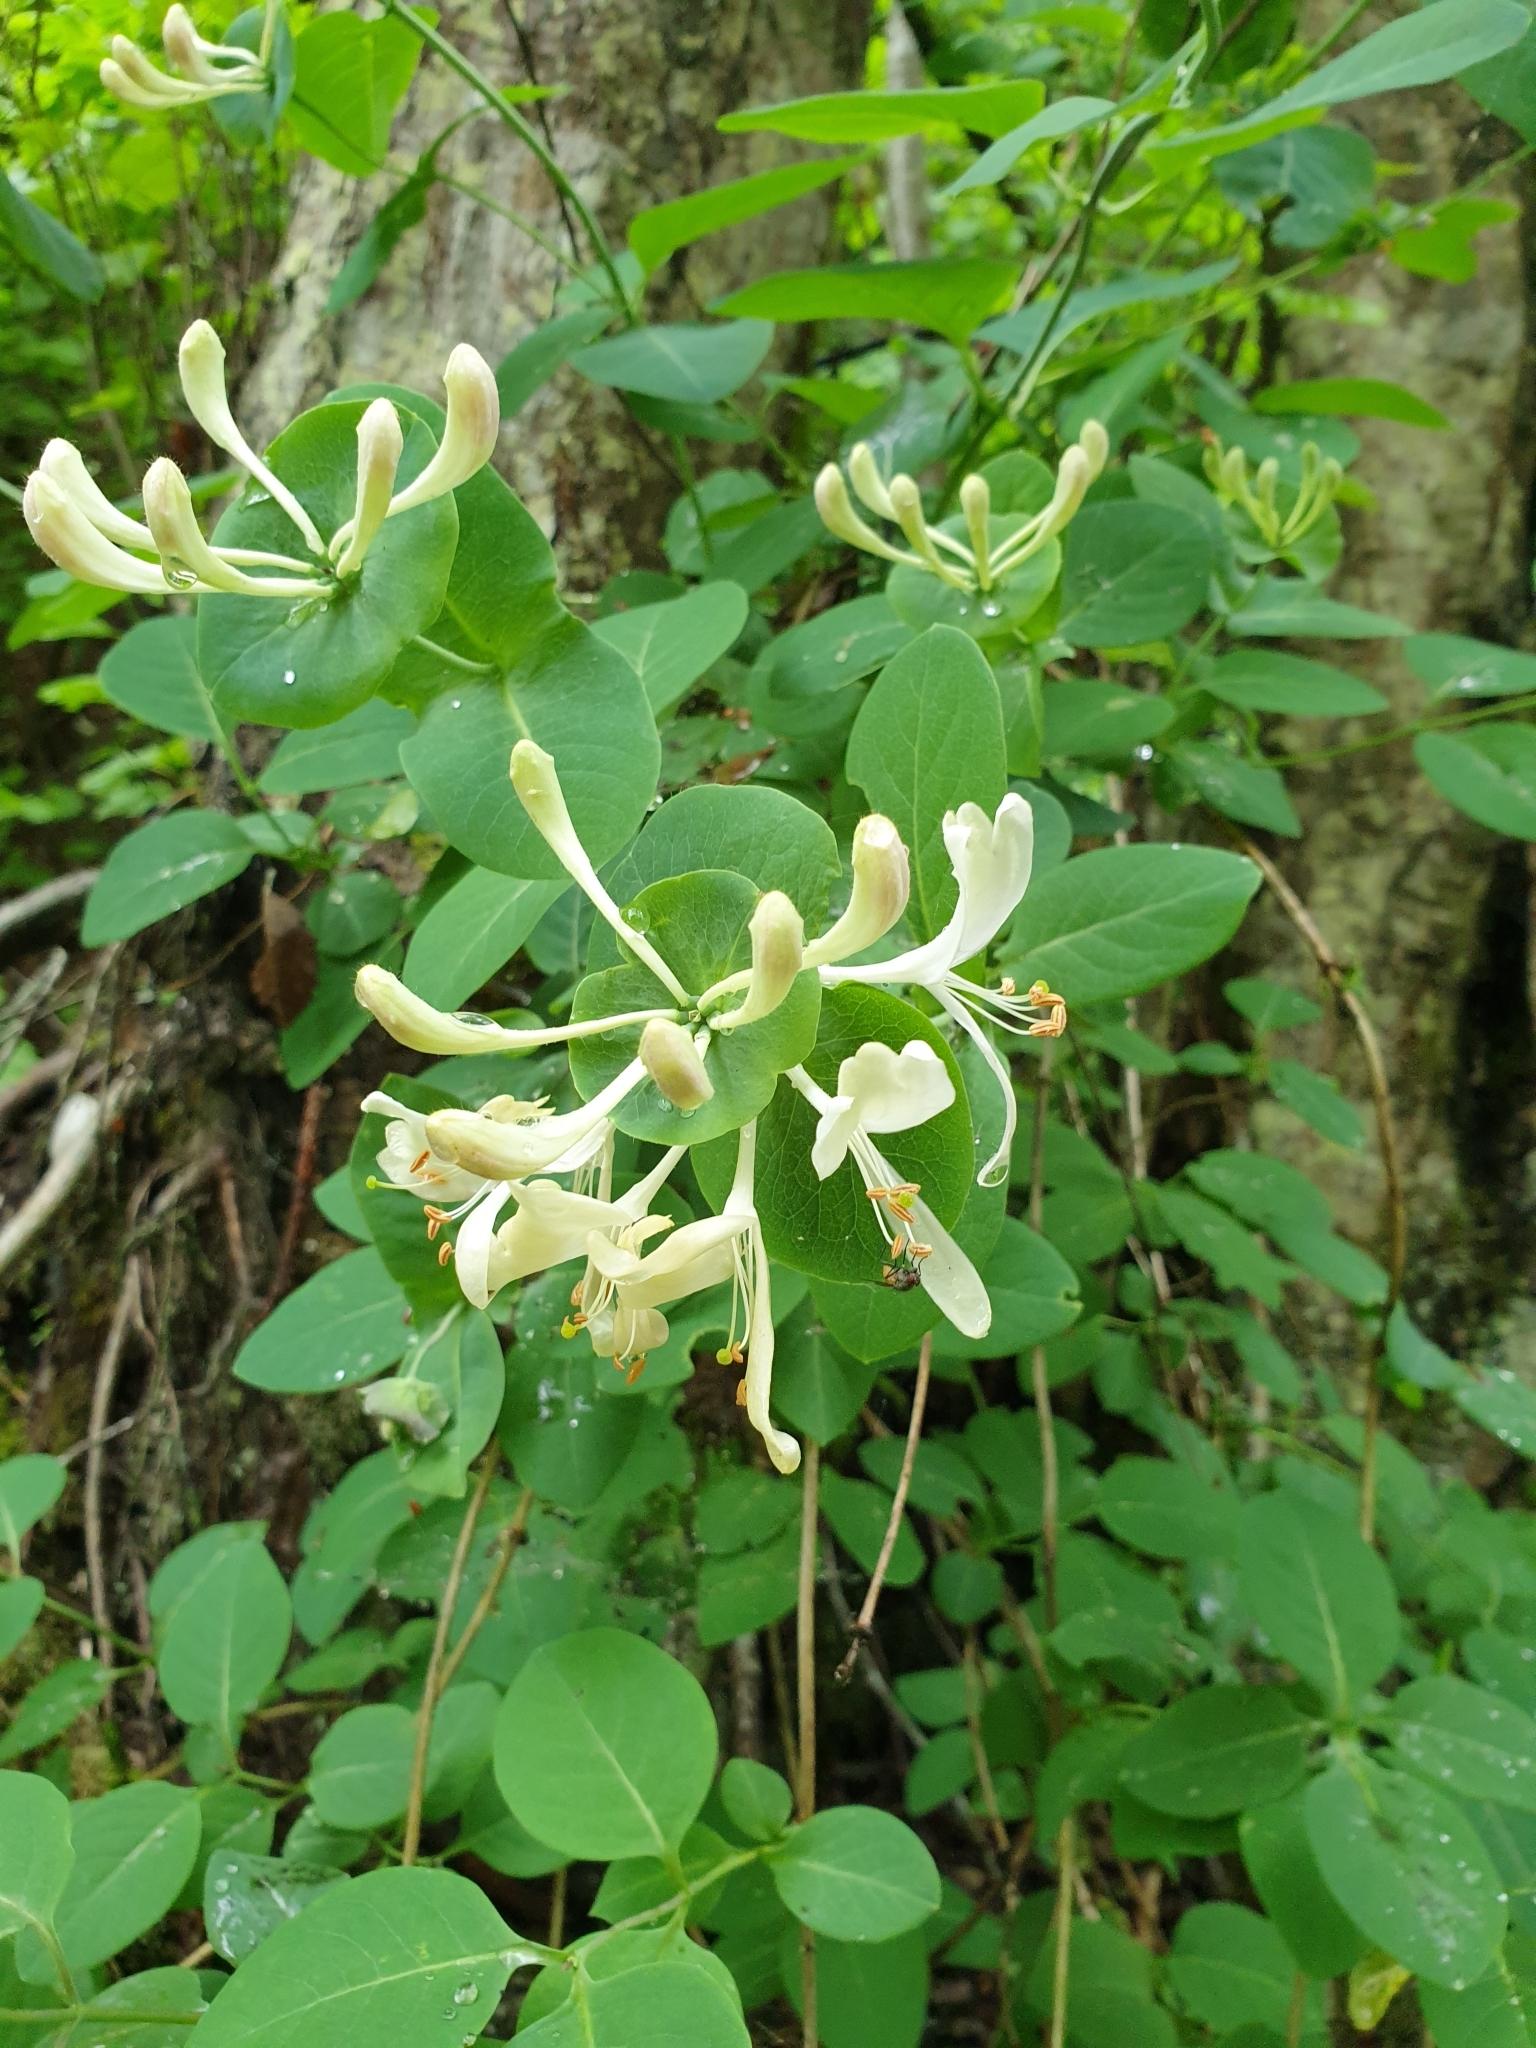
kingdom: Plantae
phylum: Tracheophyta
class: Magnoliopsida
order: Dipsacales
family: Caprifoliaceae
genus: Lonicera
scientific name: Lonicera caprifolium
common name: Perfoliate honeysuckle
